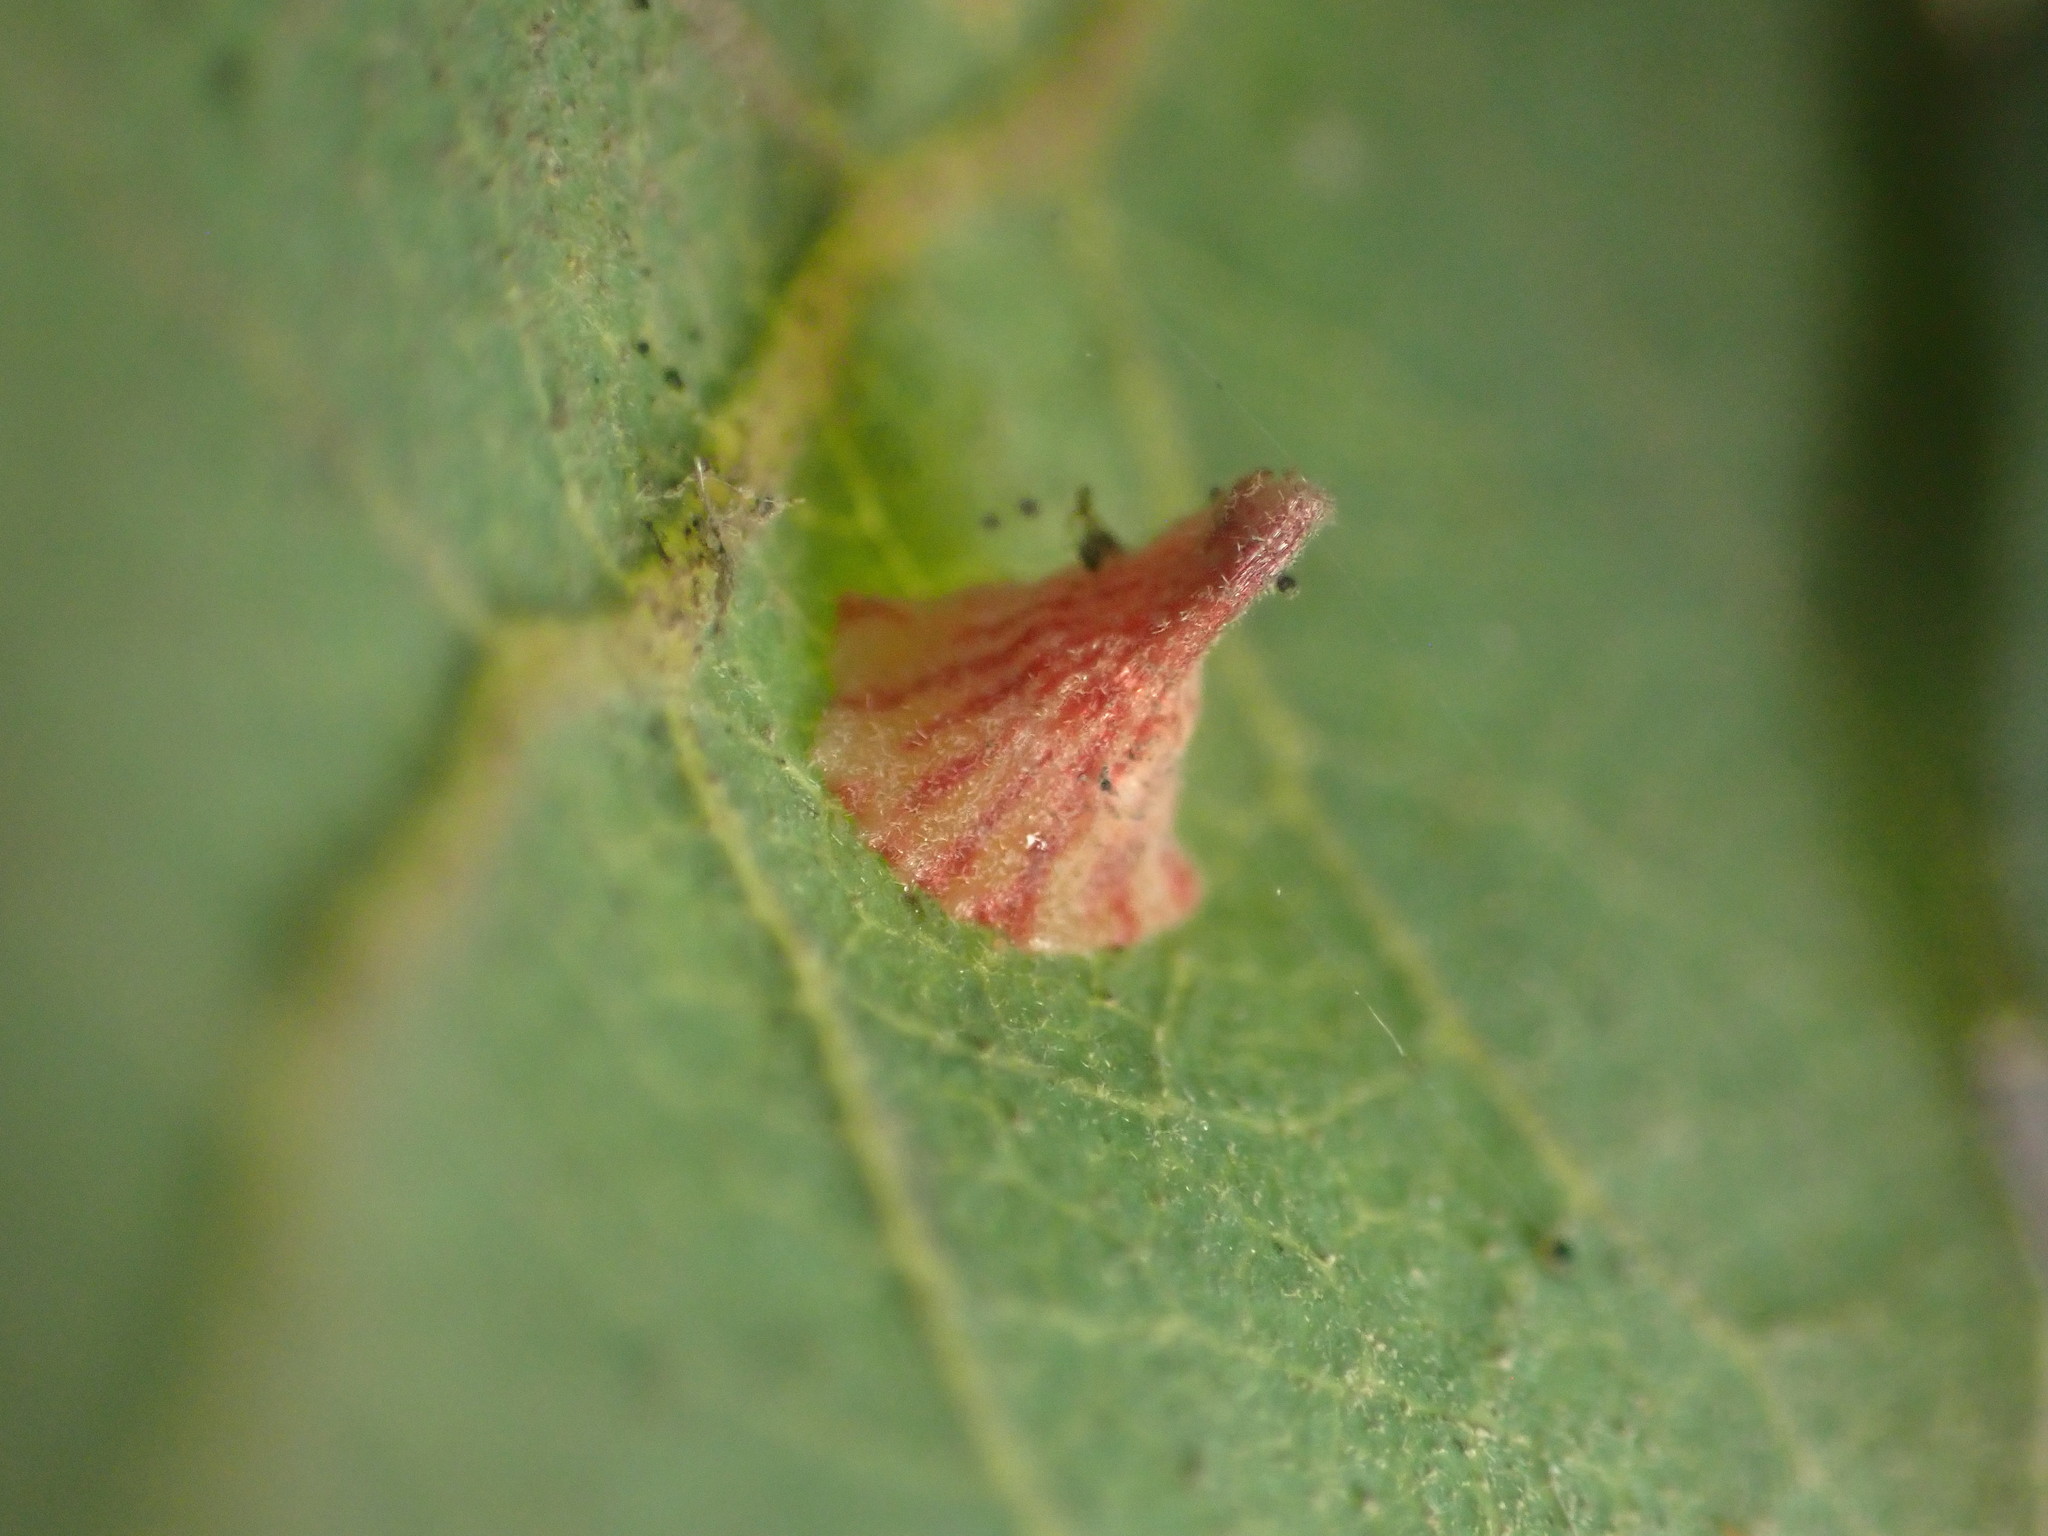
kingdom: Animalia
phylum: Arthropoda
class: Insecta
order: Hymenoptera
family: Cynipidae
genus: Andricus
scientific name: Andricus
